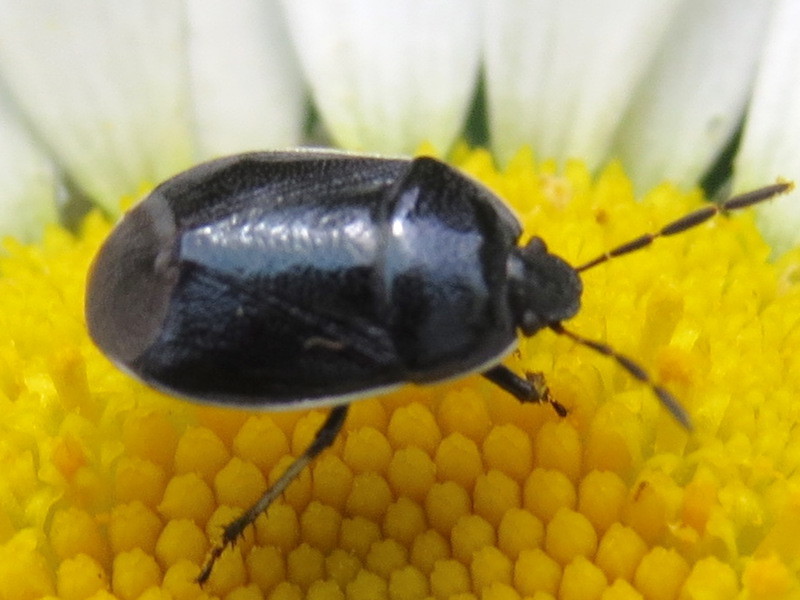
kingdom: Animalia
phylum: Arthropoda
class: Insecta
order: Hemiptera
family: Cydnidae
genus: Sehirus
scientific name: Sehirus cinctus
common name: White-margined burrower bug
